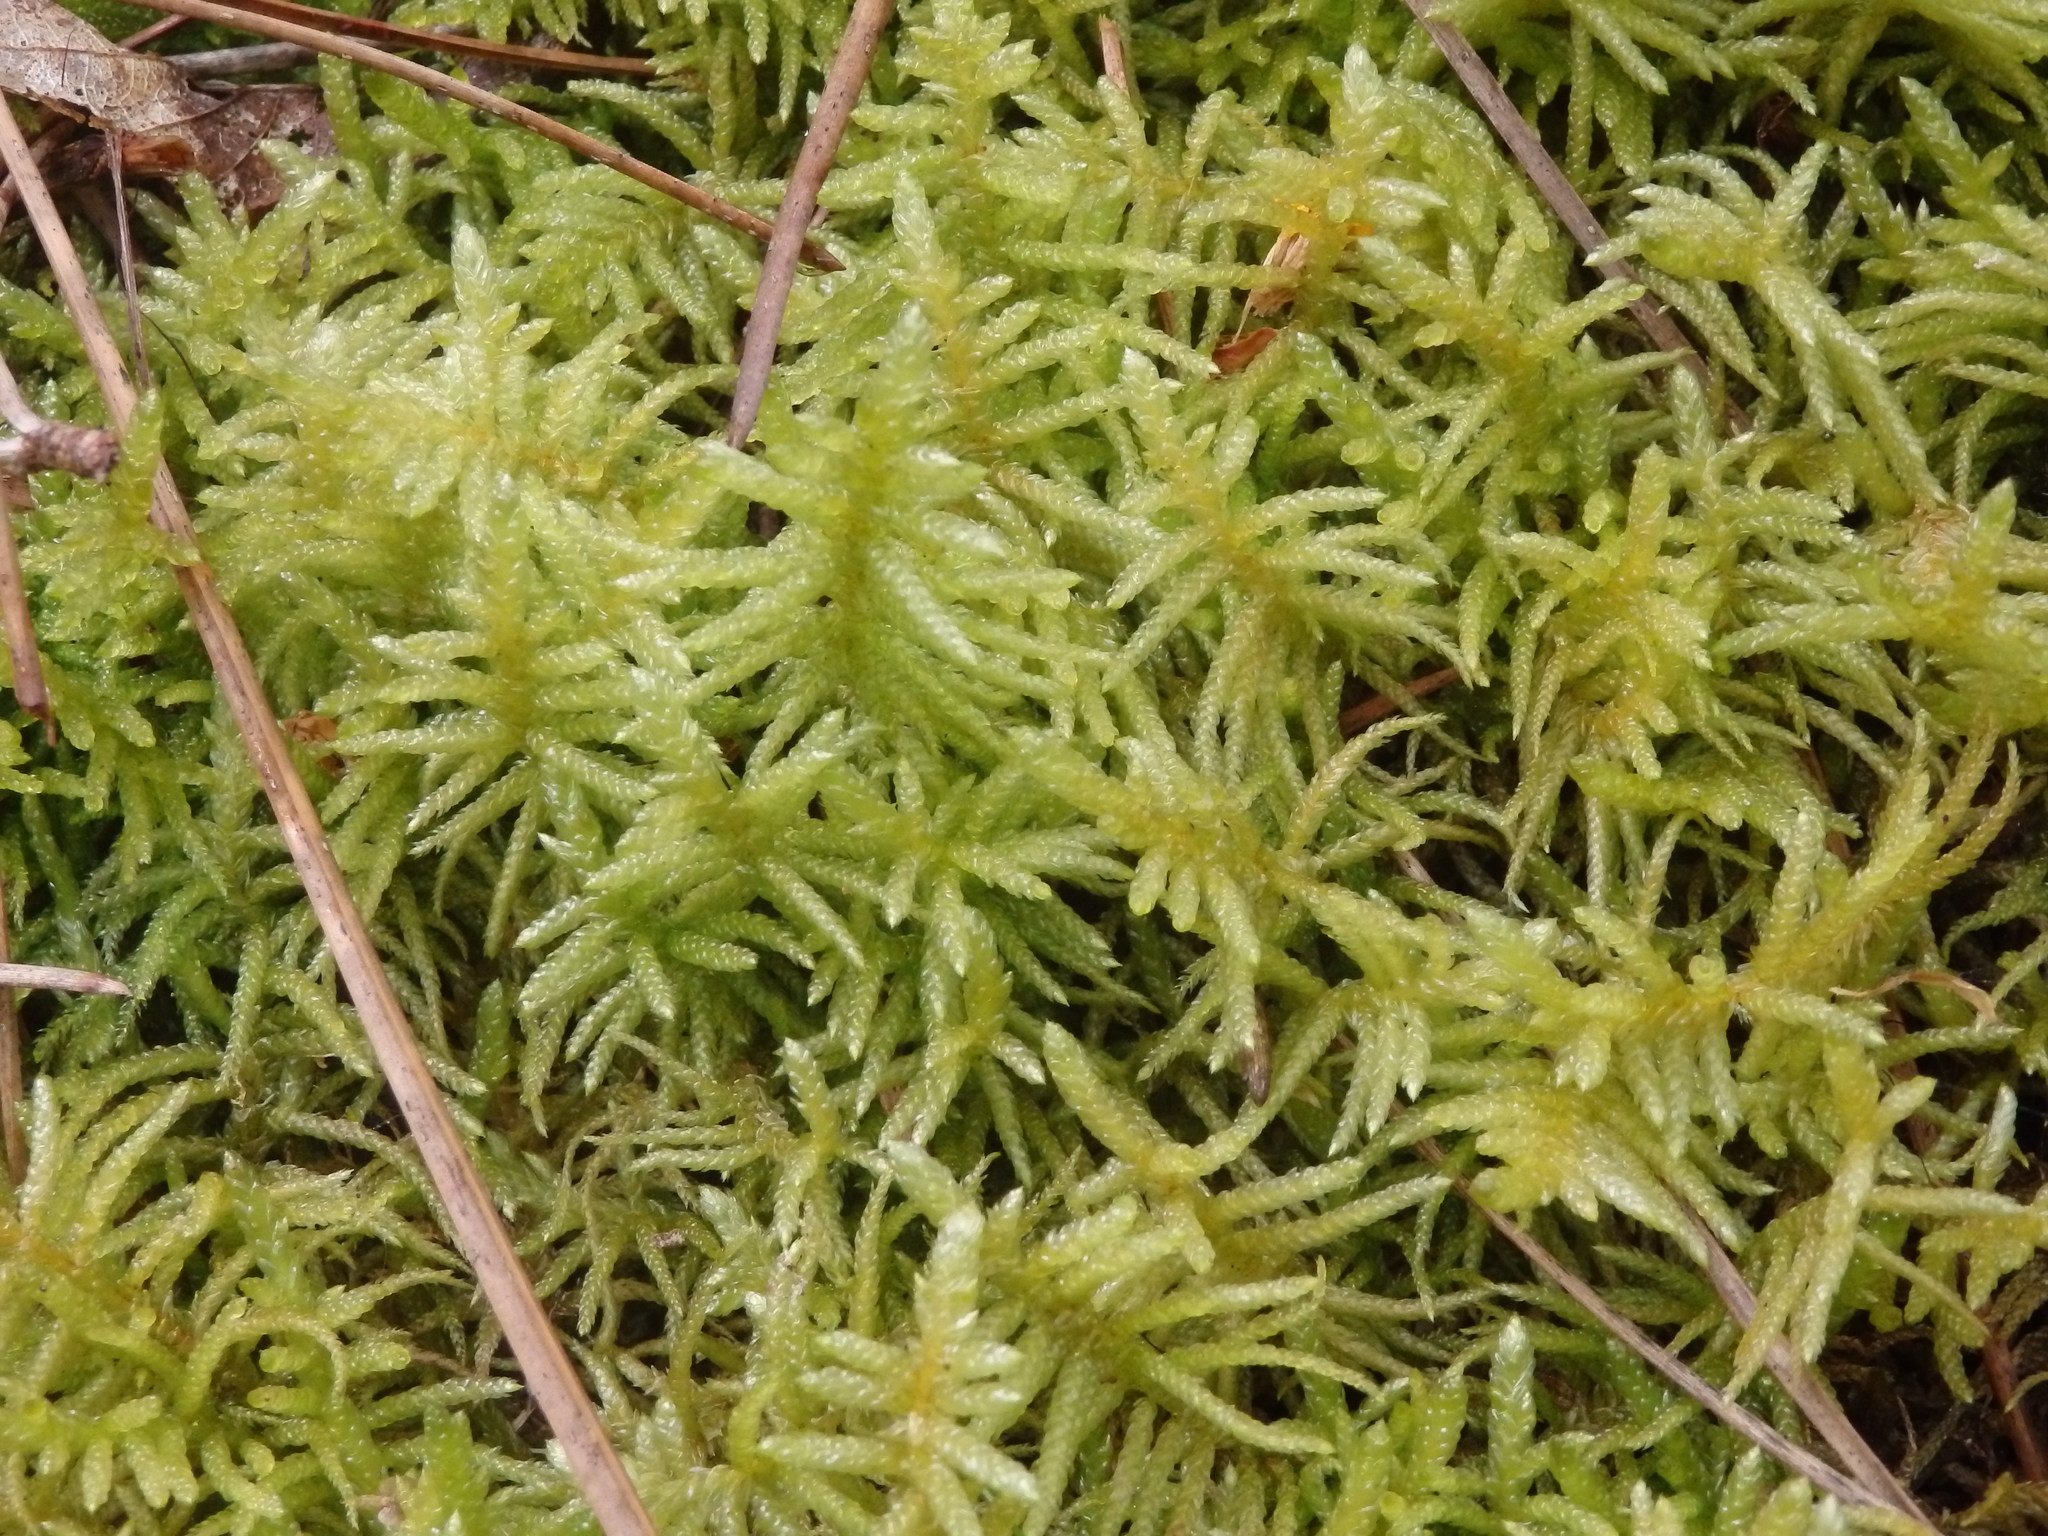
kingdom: Plantae
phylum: Bryophyta
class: Bryopsida
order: Hypnales
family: Brachytheciaceae
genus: Pseudoscleropodium
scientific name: Pseudoscleropodium purum
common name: Neat feather-moss
